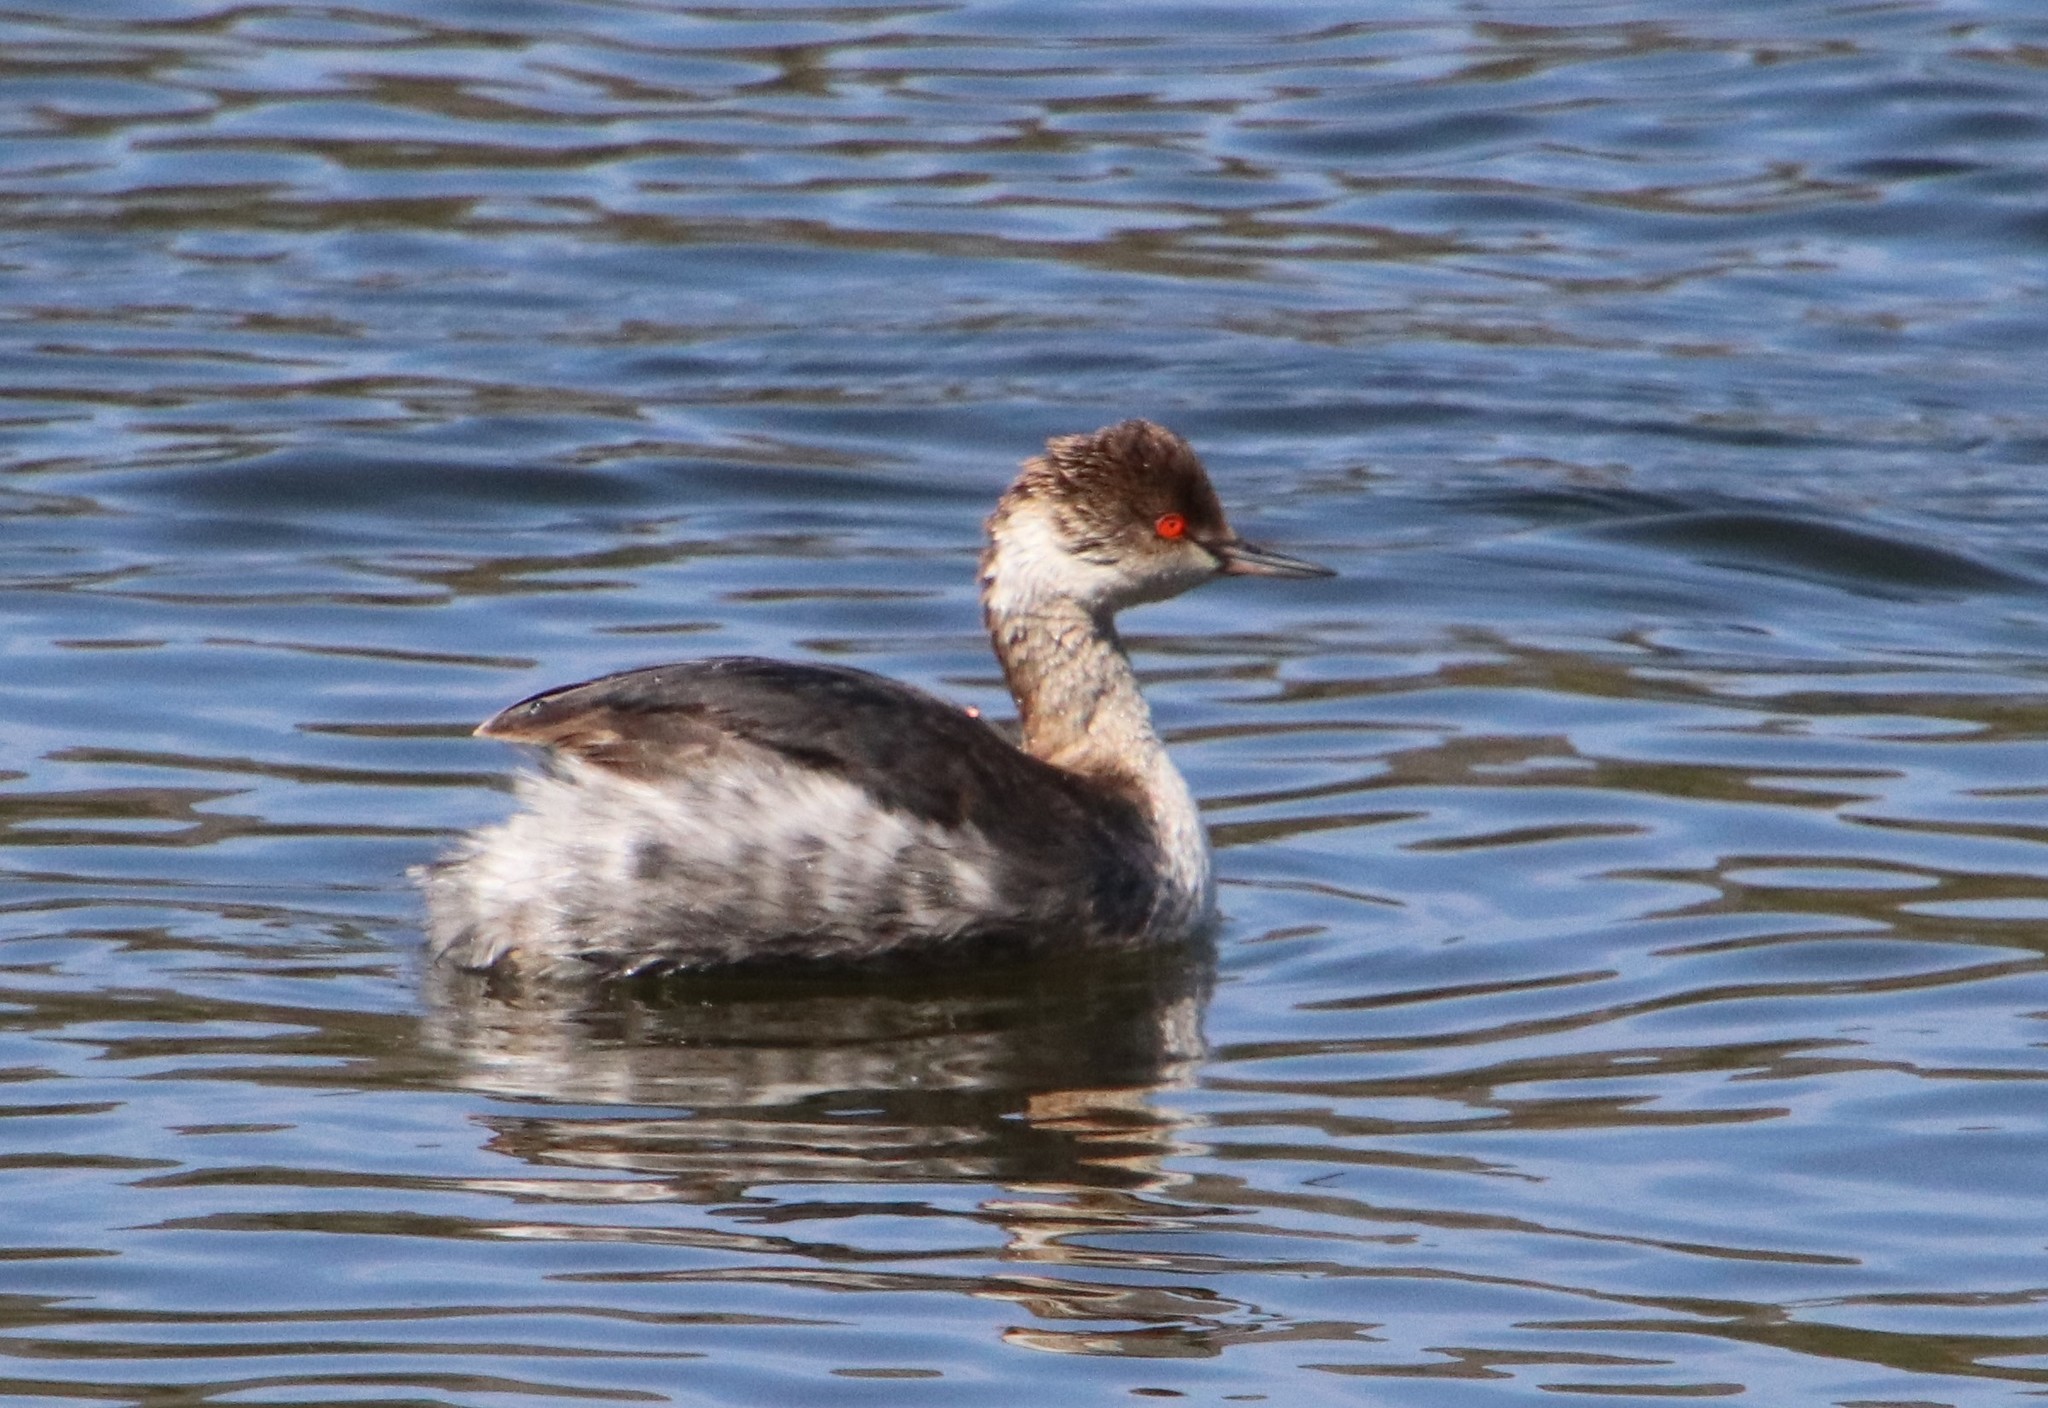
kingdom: Animalia
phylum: Chordata
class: Aves
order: Podicipediformes
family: Podicipedidae
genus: Podiceps
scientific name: Podiceps nigricollis
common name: Black-necked grebe
